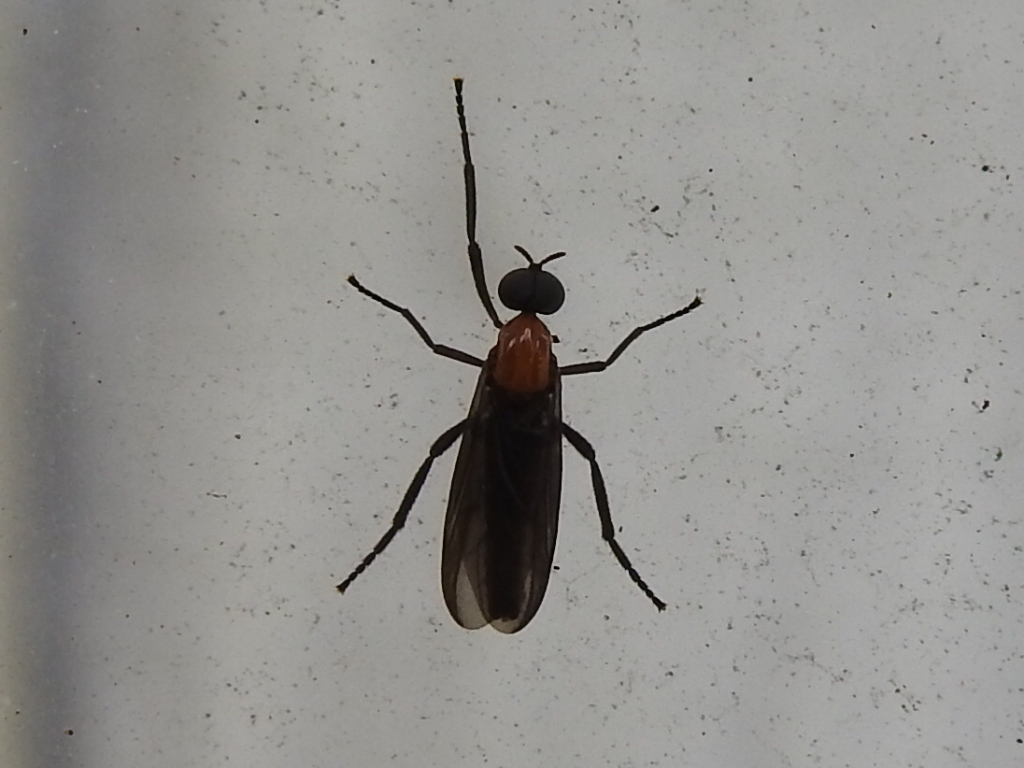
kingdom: Animalia
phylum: Arthropoda
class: Insecta
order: Diptera
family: Bibionidae
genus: Plecia
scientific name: Plecia nearctica
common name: March fly
